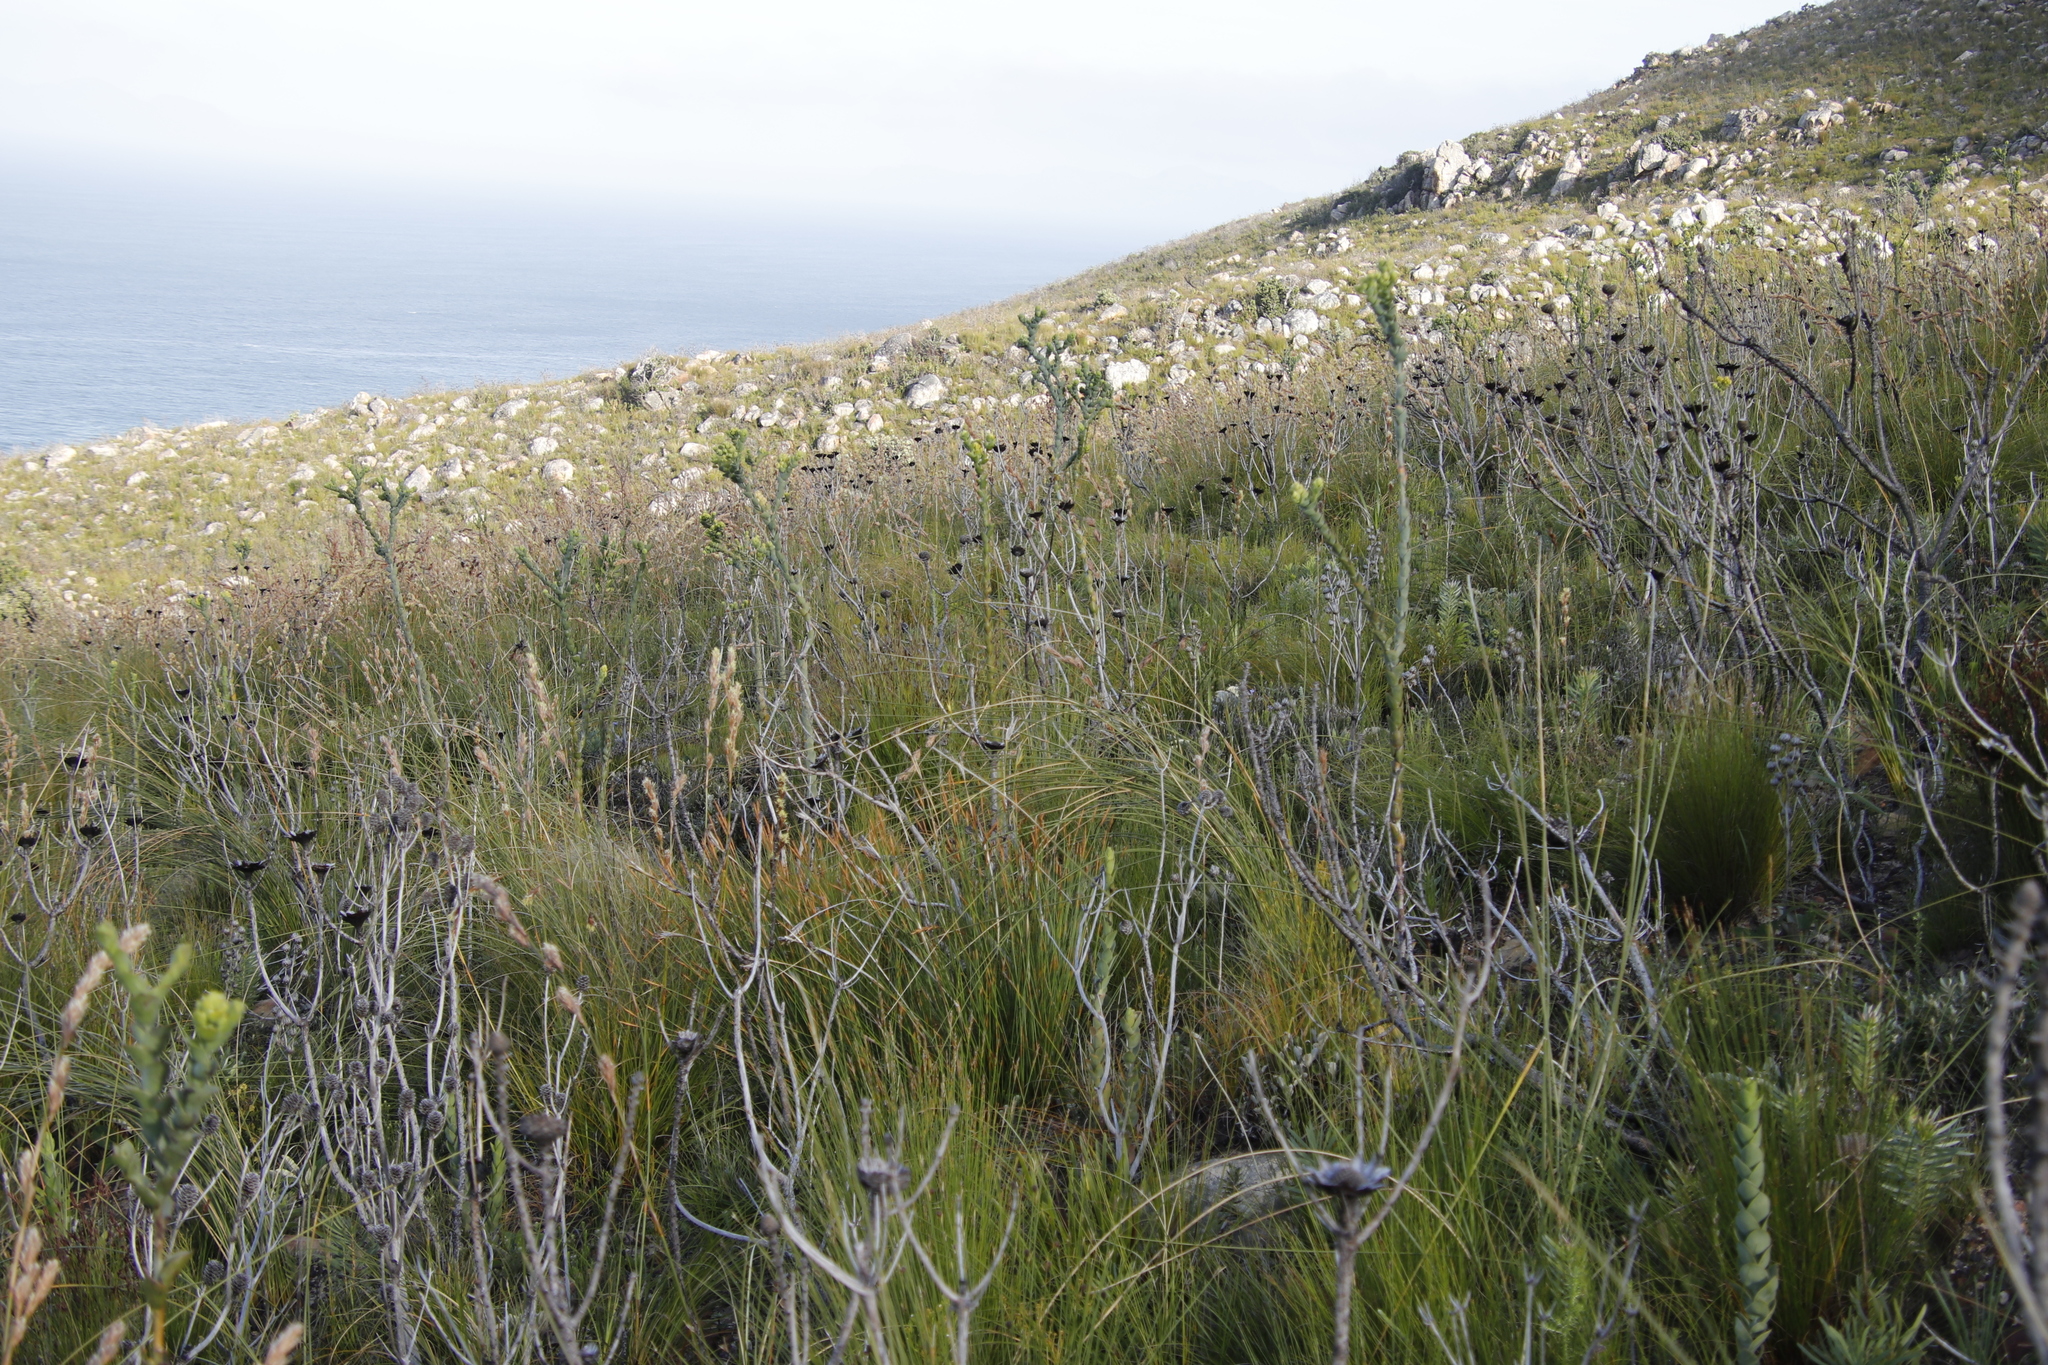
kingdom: Plantae
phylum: Tracheophyta
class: Magnoliopsida
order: Proteales
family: Proteaceae
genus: Protea
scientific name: Protea repens
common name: Sugarbush
